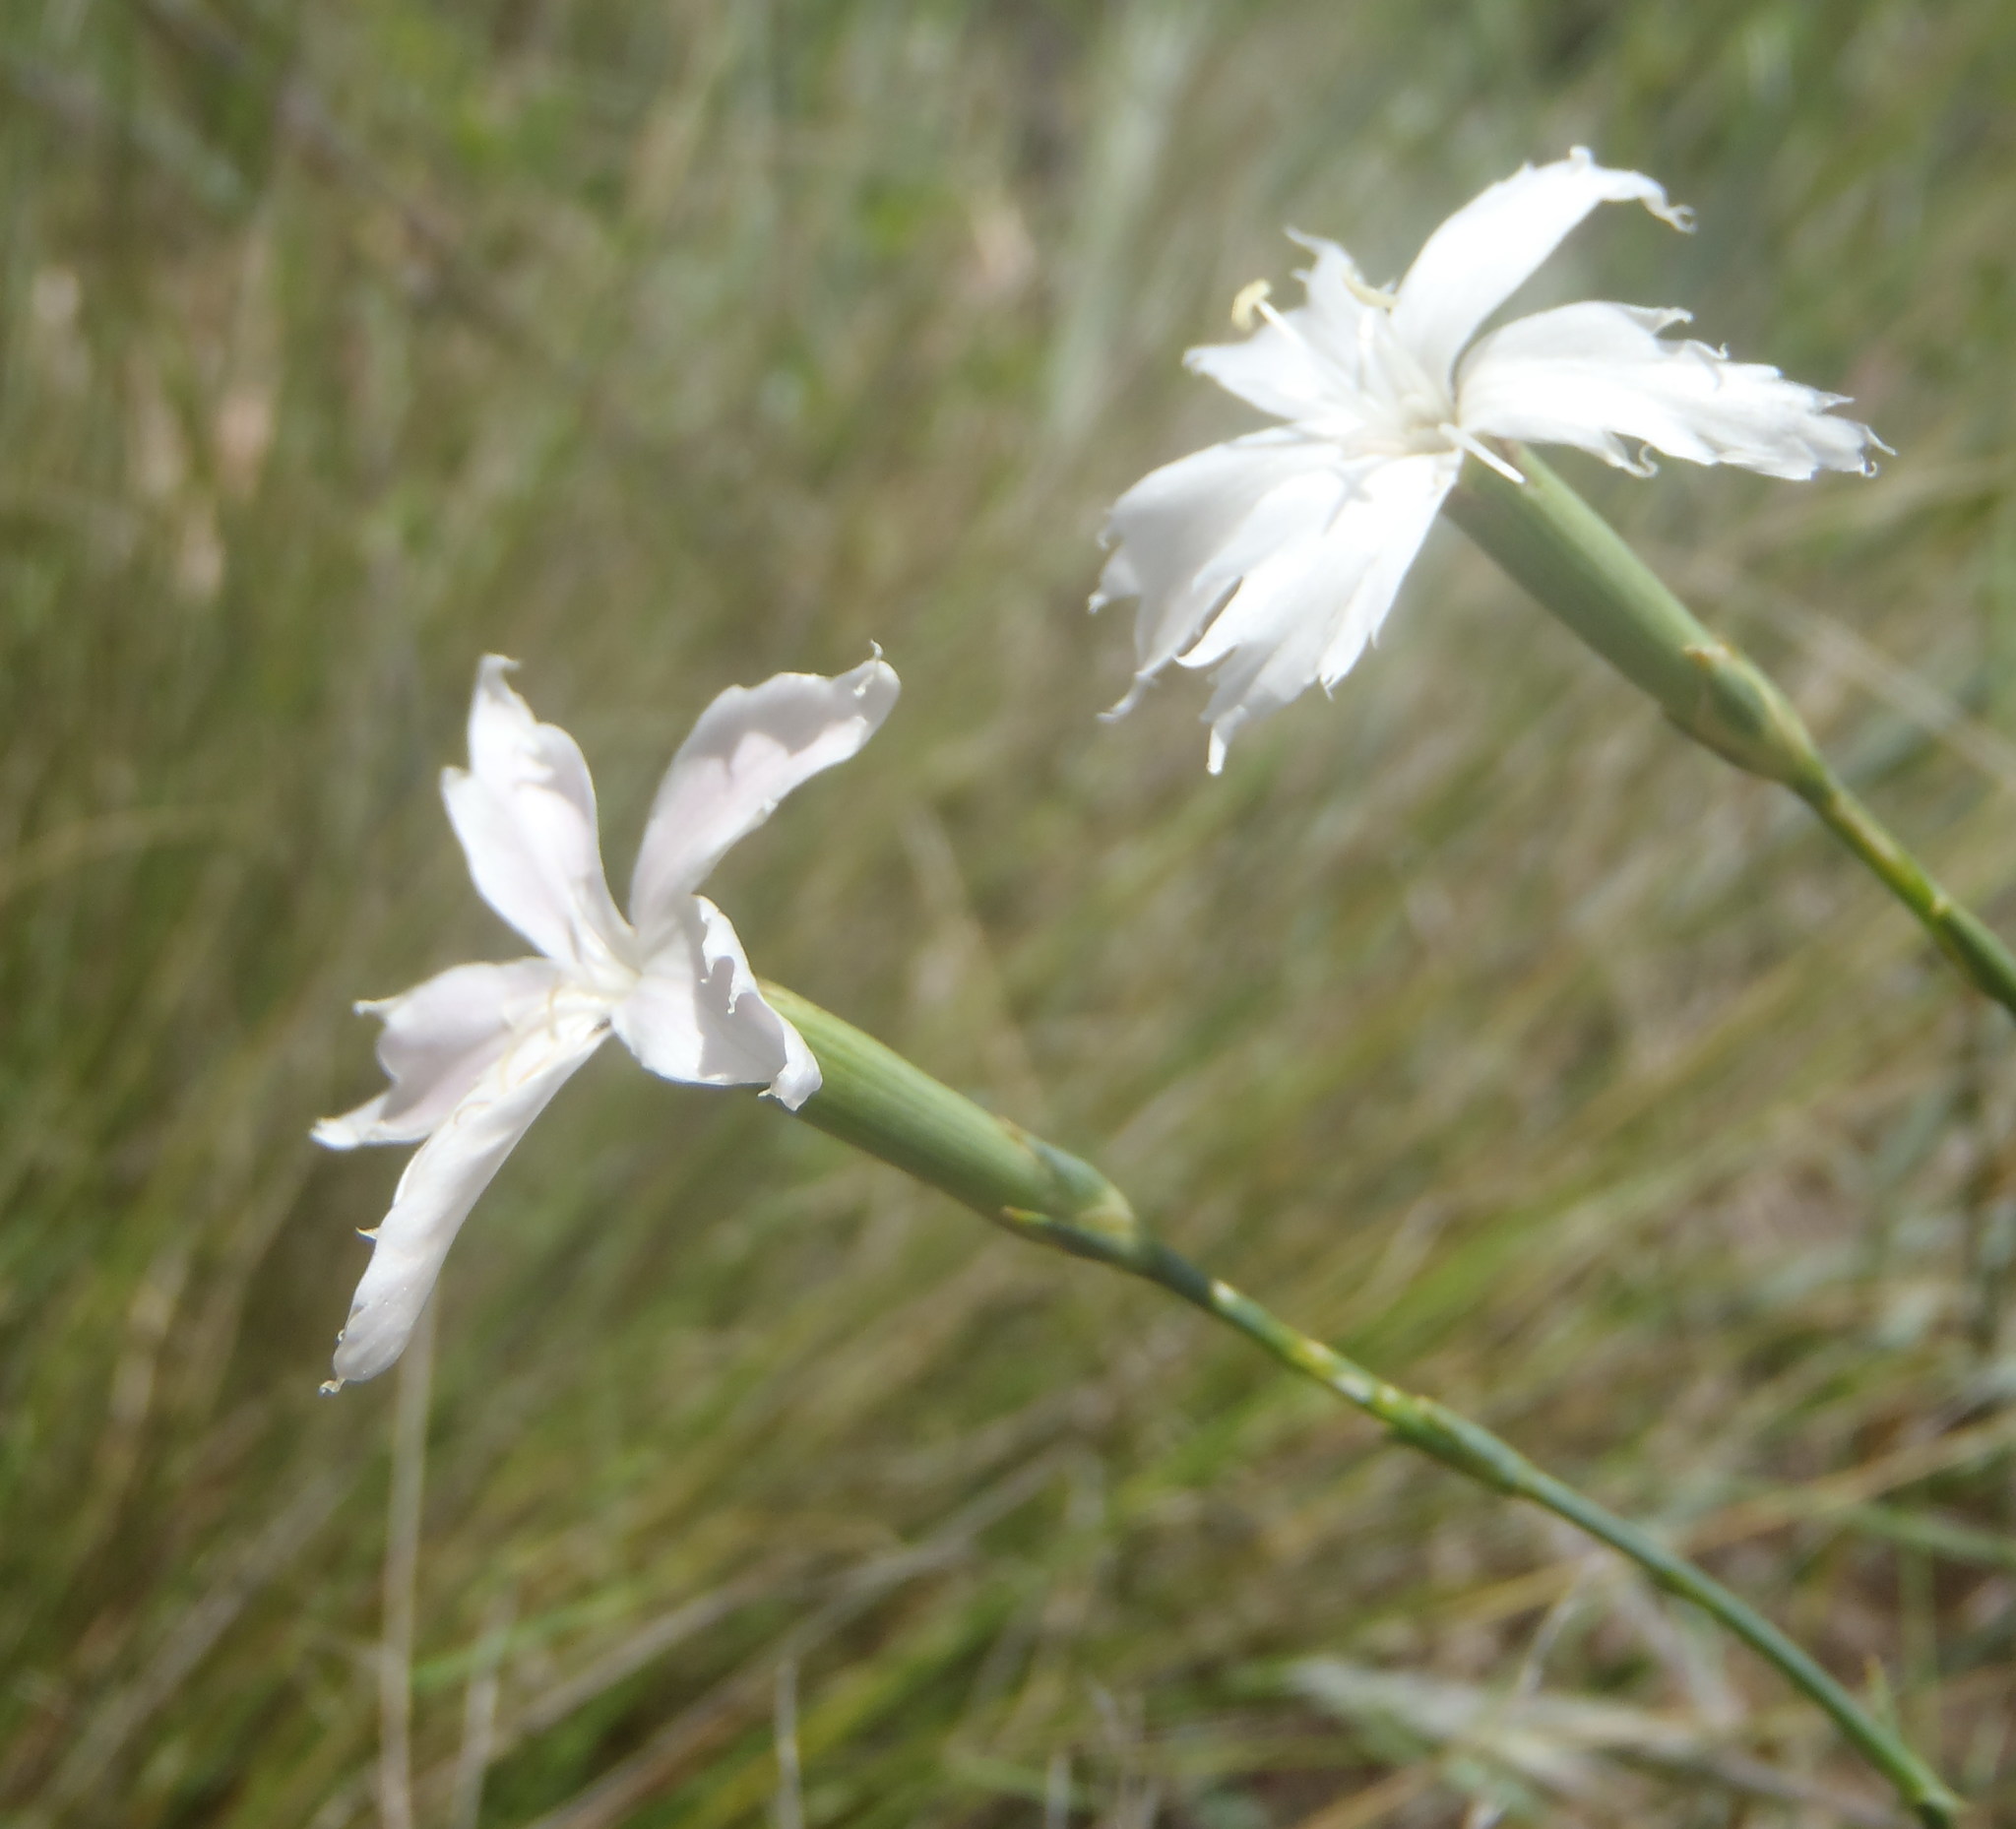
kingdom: Plantae
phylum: Tracheophyta
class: Magnoliopsida
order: Caryophyllales
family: Caryophyllaceae
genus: Dianthus
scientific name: Dianthus moviensis
